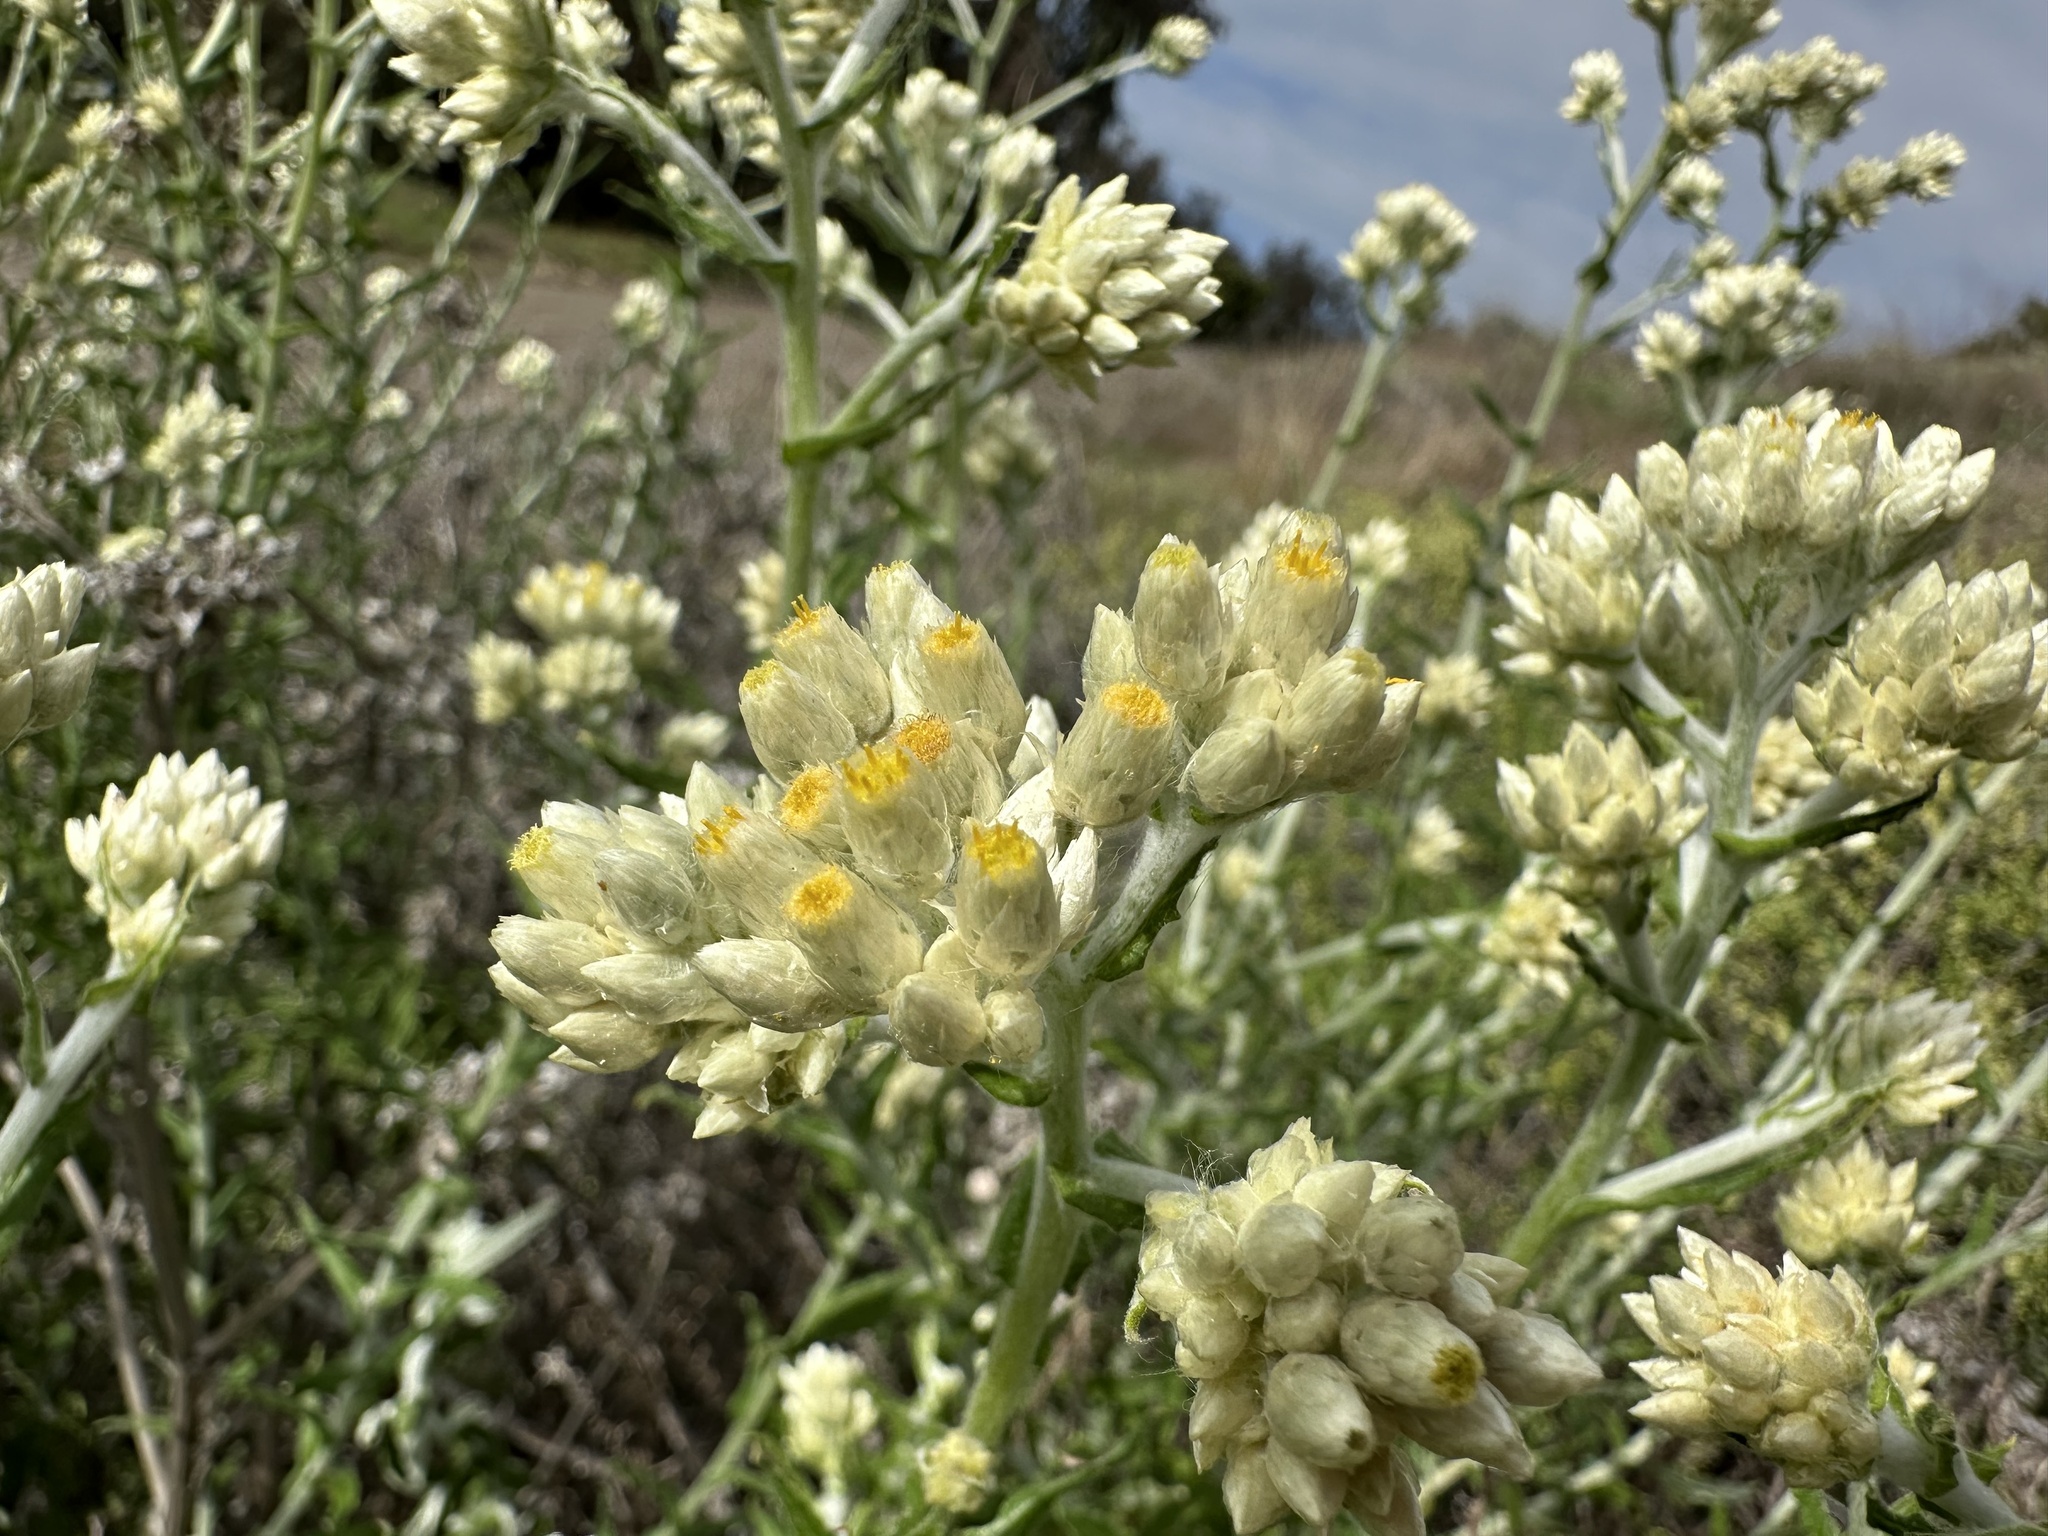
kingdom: Plantae
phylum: Tracheophyta
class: Magnoliopsida
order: Asterales
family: Asteraceae
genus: Pseudognaphalium
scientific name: Pseudognaphalium biolettii
